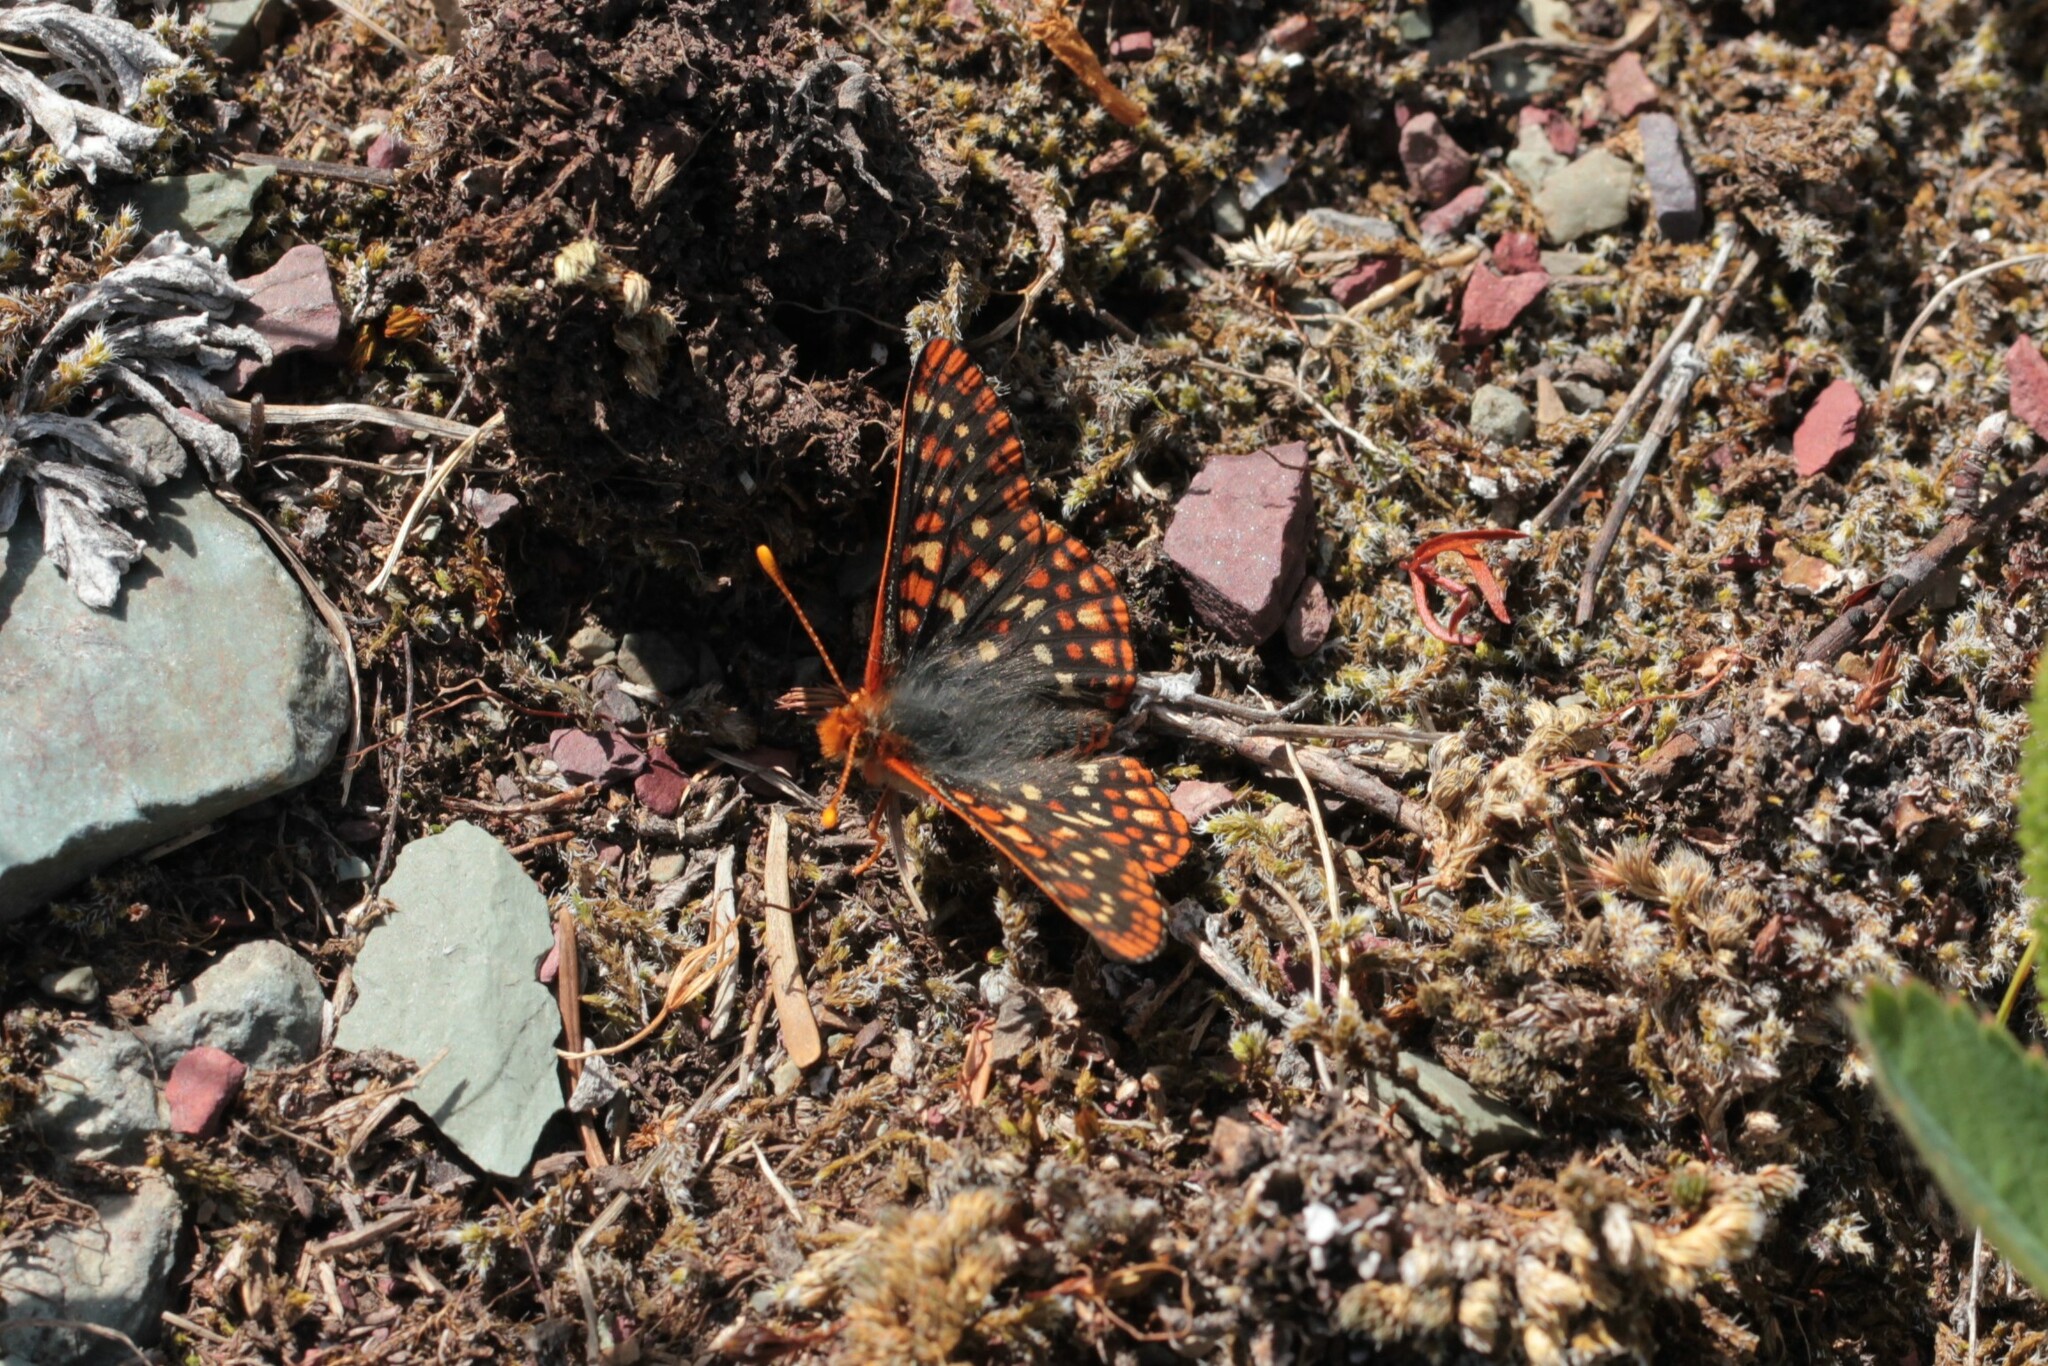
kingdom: Animalia
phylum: Arthropoda
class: Insecta
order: Lepidoptera
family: Nymphalidae
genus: Occidryas
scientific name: Occidryas anicia
